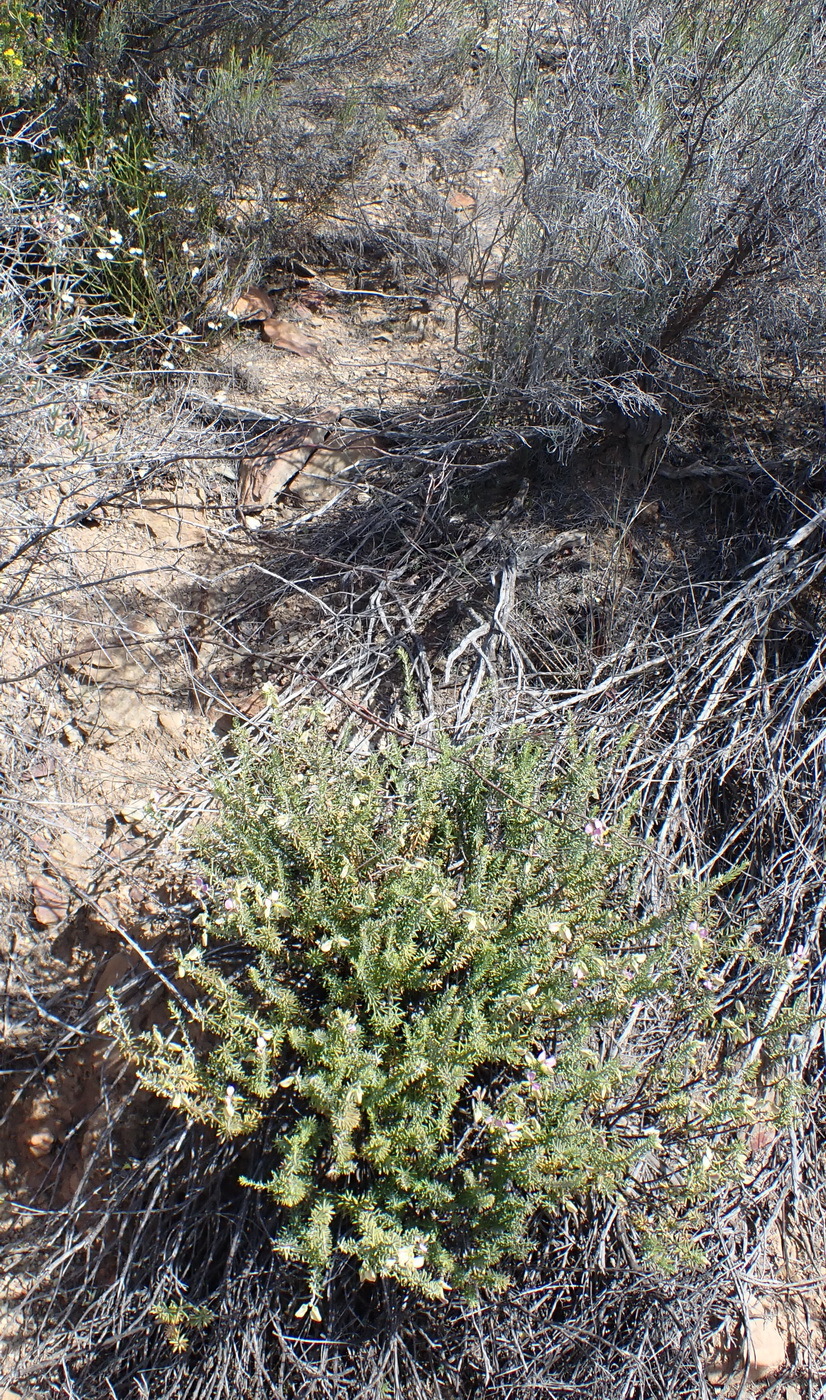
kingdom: Plantae
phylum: Tracheophyta
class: Magnoliopsida
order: Fabales
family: Polygalaceae
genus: Polygala
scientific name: Polygala teretifolia
